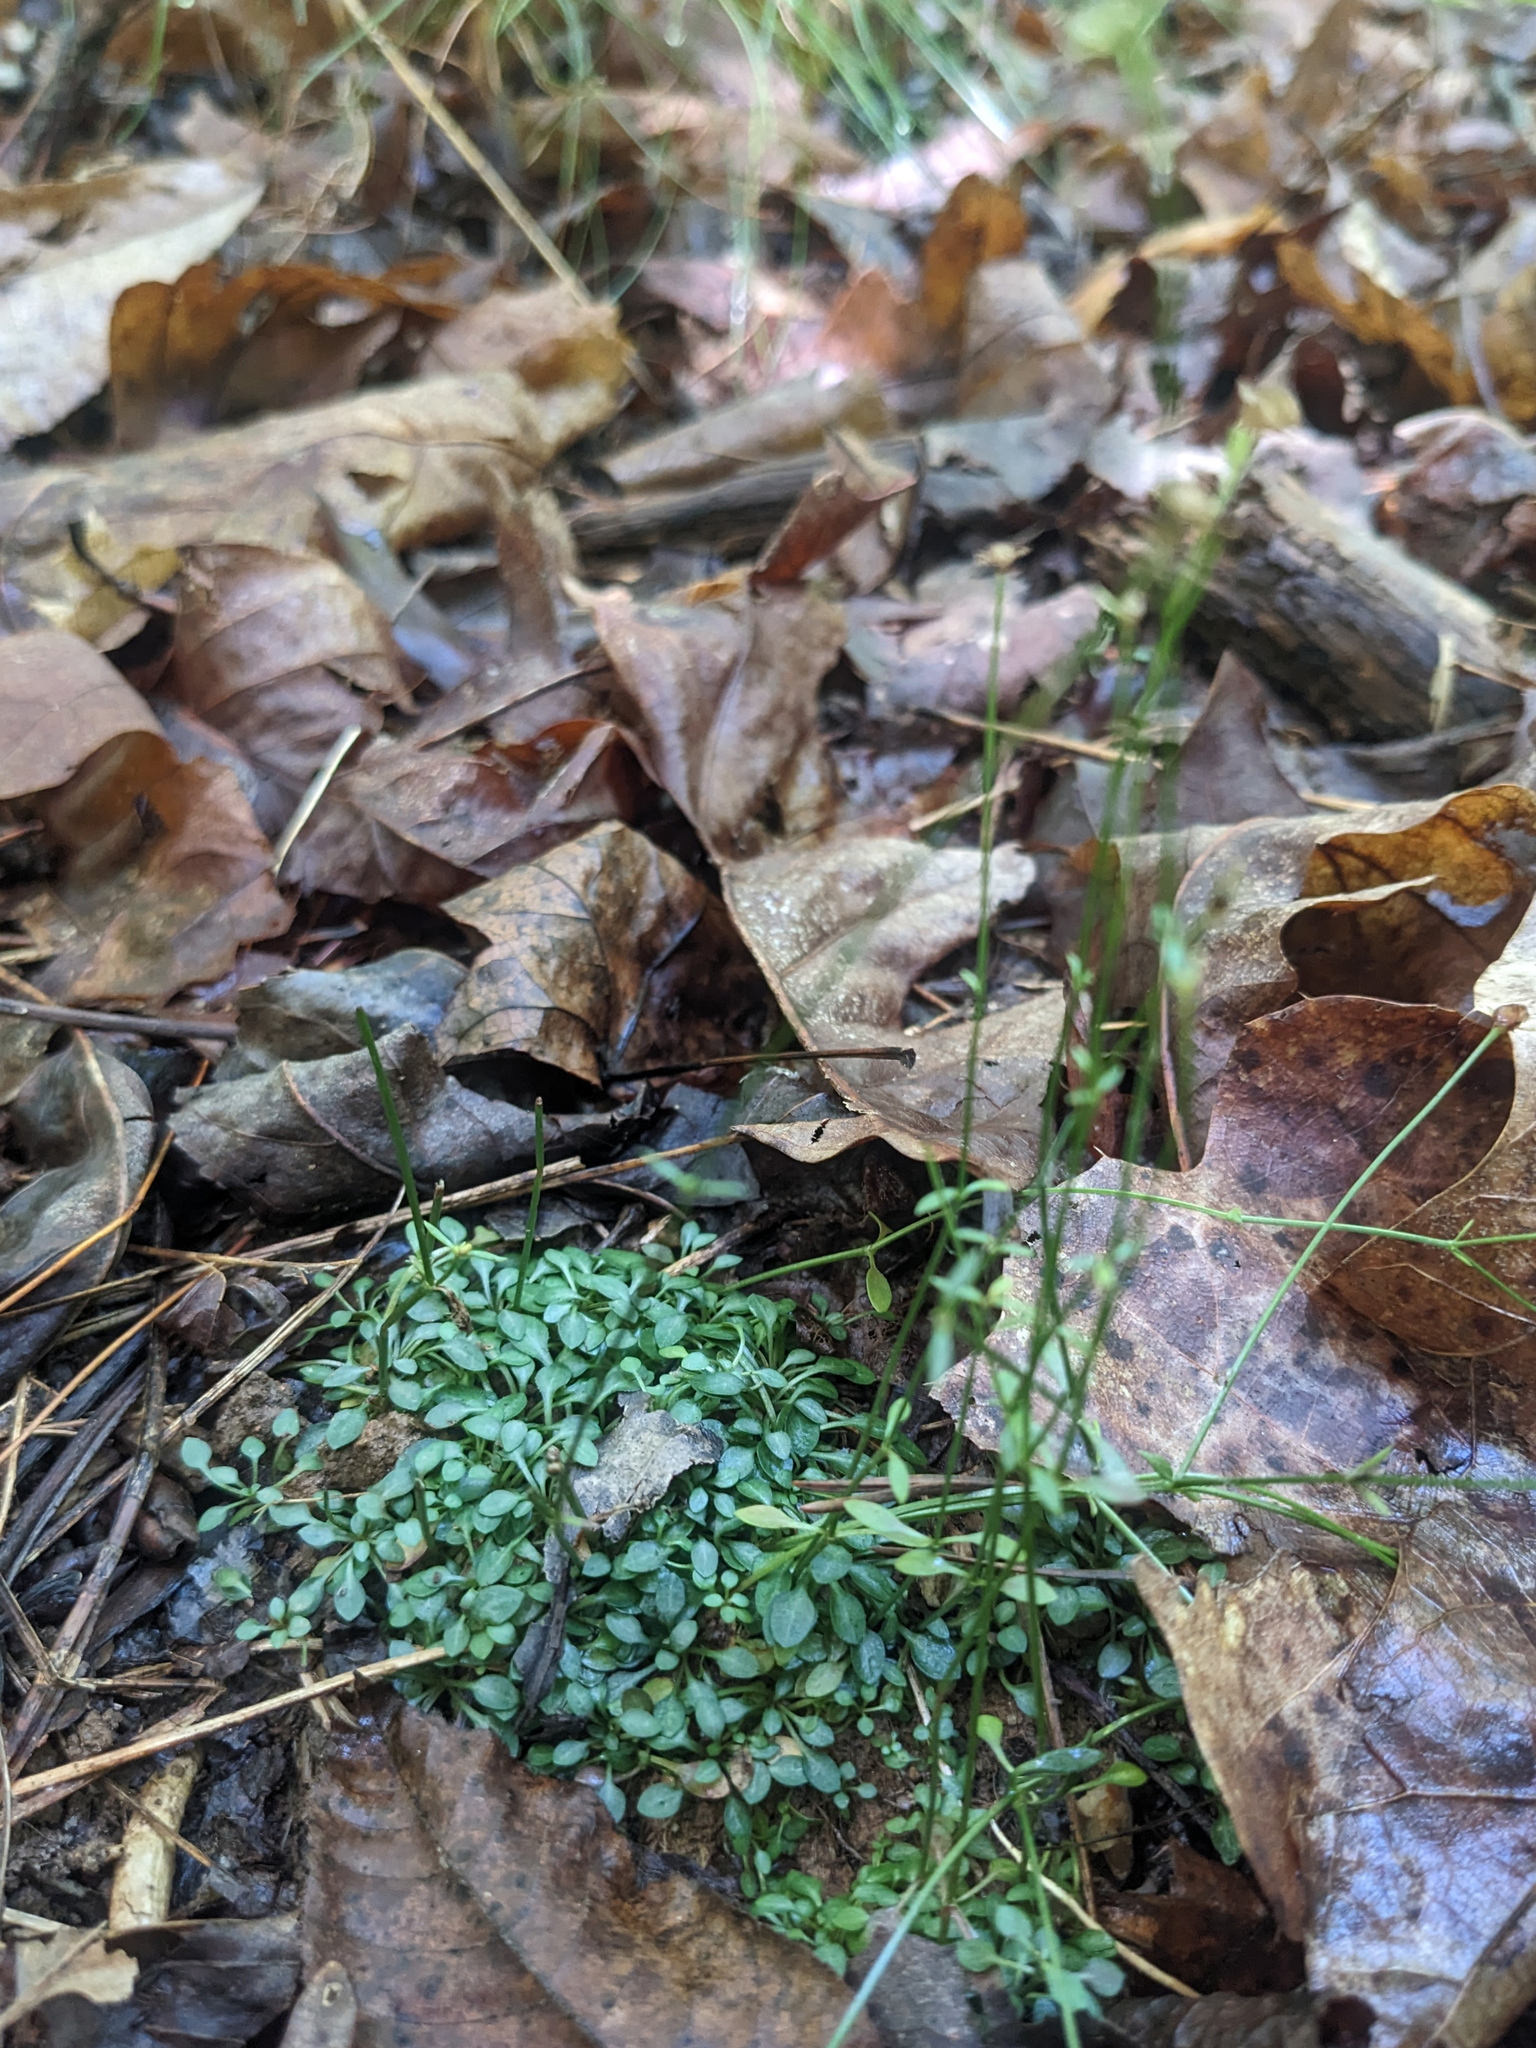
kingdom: Plantae
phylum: Tracheophyta
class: Magnoliopsida
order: Gentianales
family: Rubiaceae
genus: Houstonia
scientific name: Houstonia caerulea
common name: Bluets
